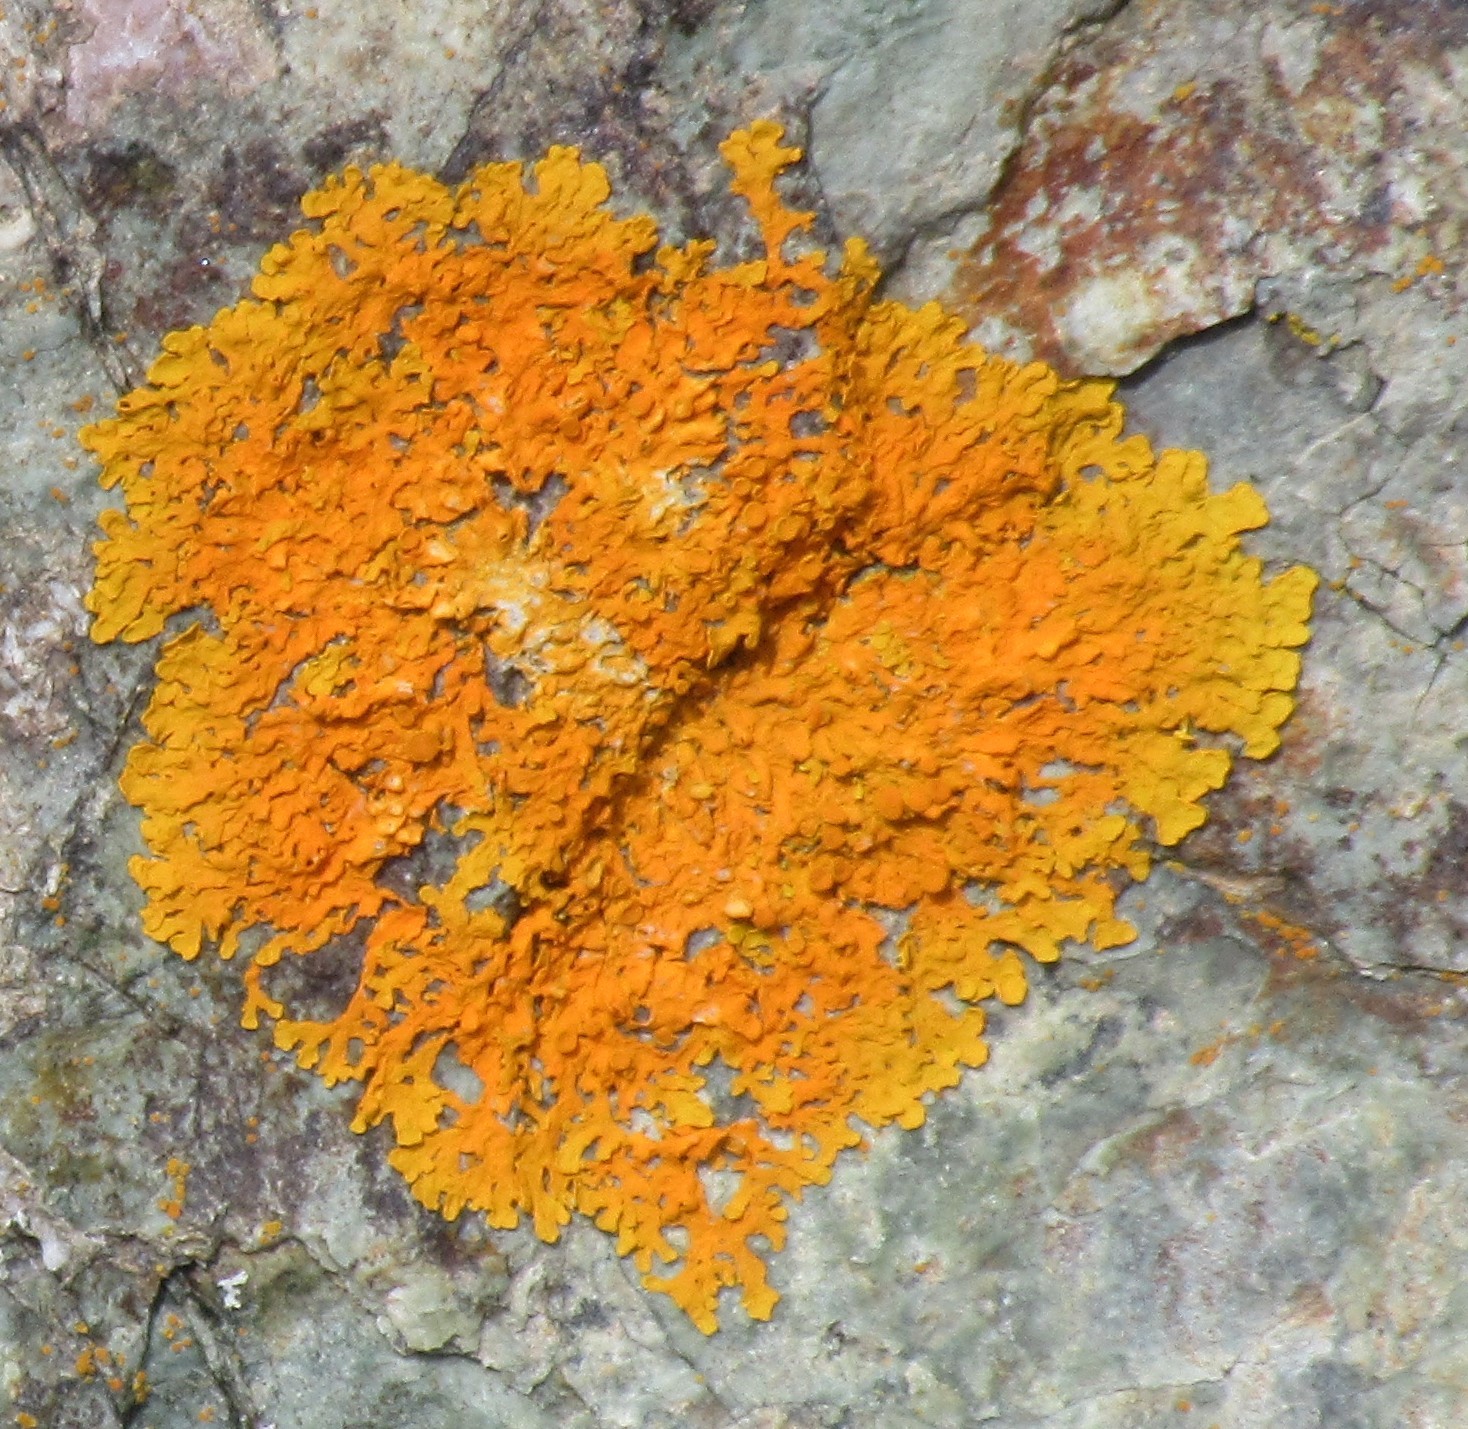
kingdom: Fungi
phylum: Ascomycota
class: Lecanoromycetes
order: Teloschistales
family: Teloschistaceae
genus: Xanthoria
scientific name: Xanthoria parietina
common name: Common orange lichen
